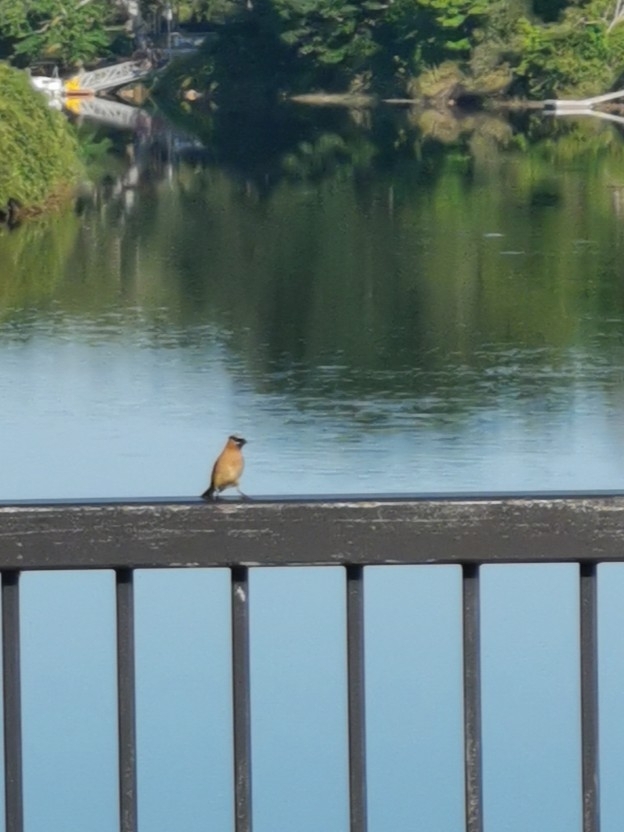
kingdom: Animalia
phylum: Chordata
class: Aves
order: Passeriformes
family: Bombycillidae
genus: Bombycilla
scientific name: Bombycilla cedrorum
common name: Cedar waxwing
